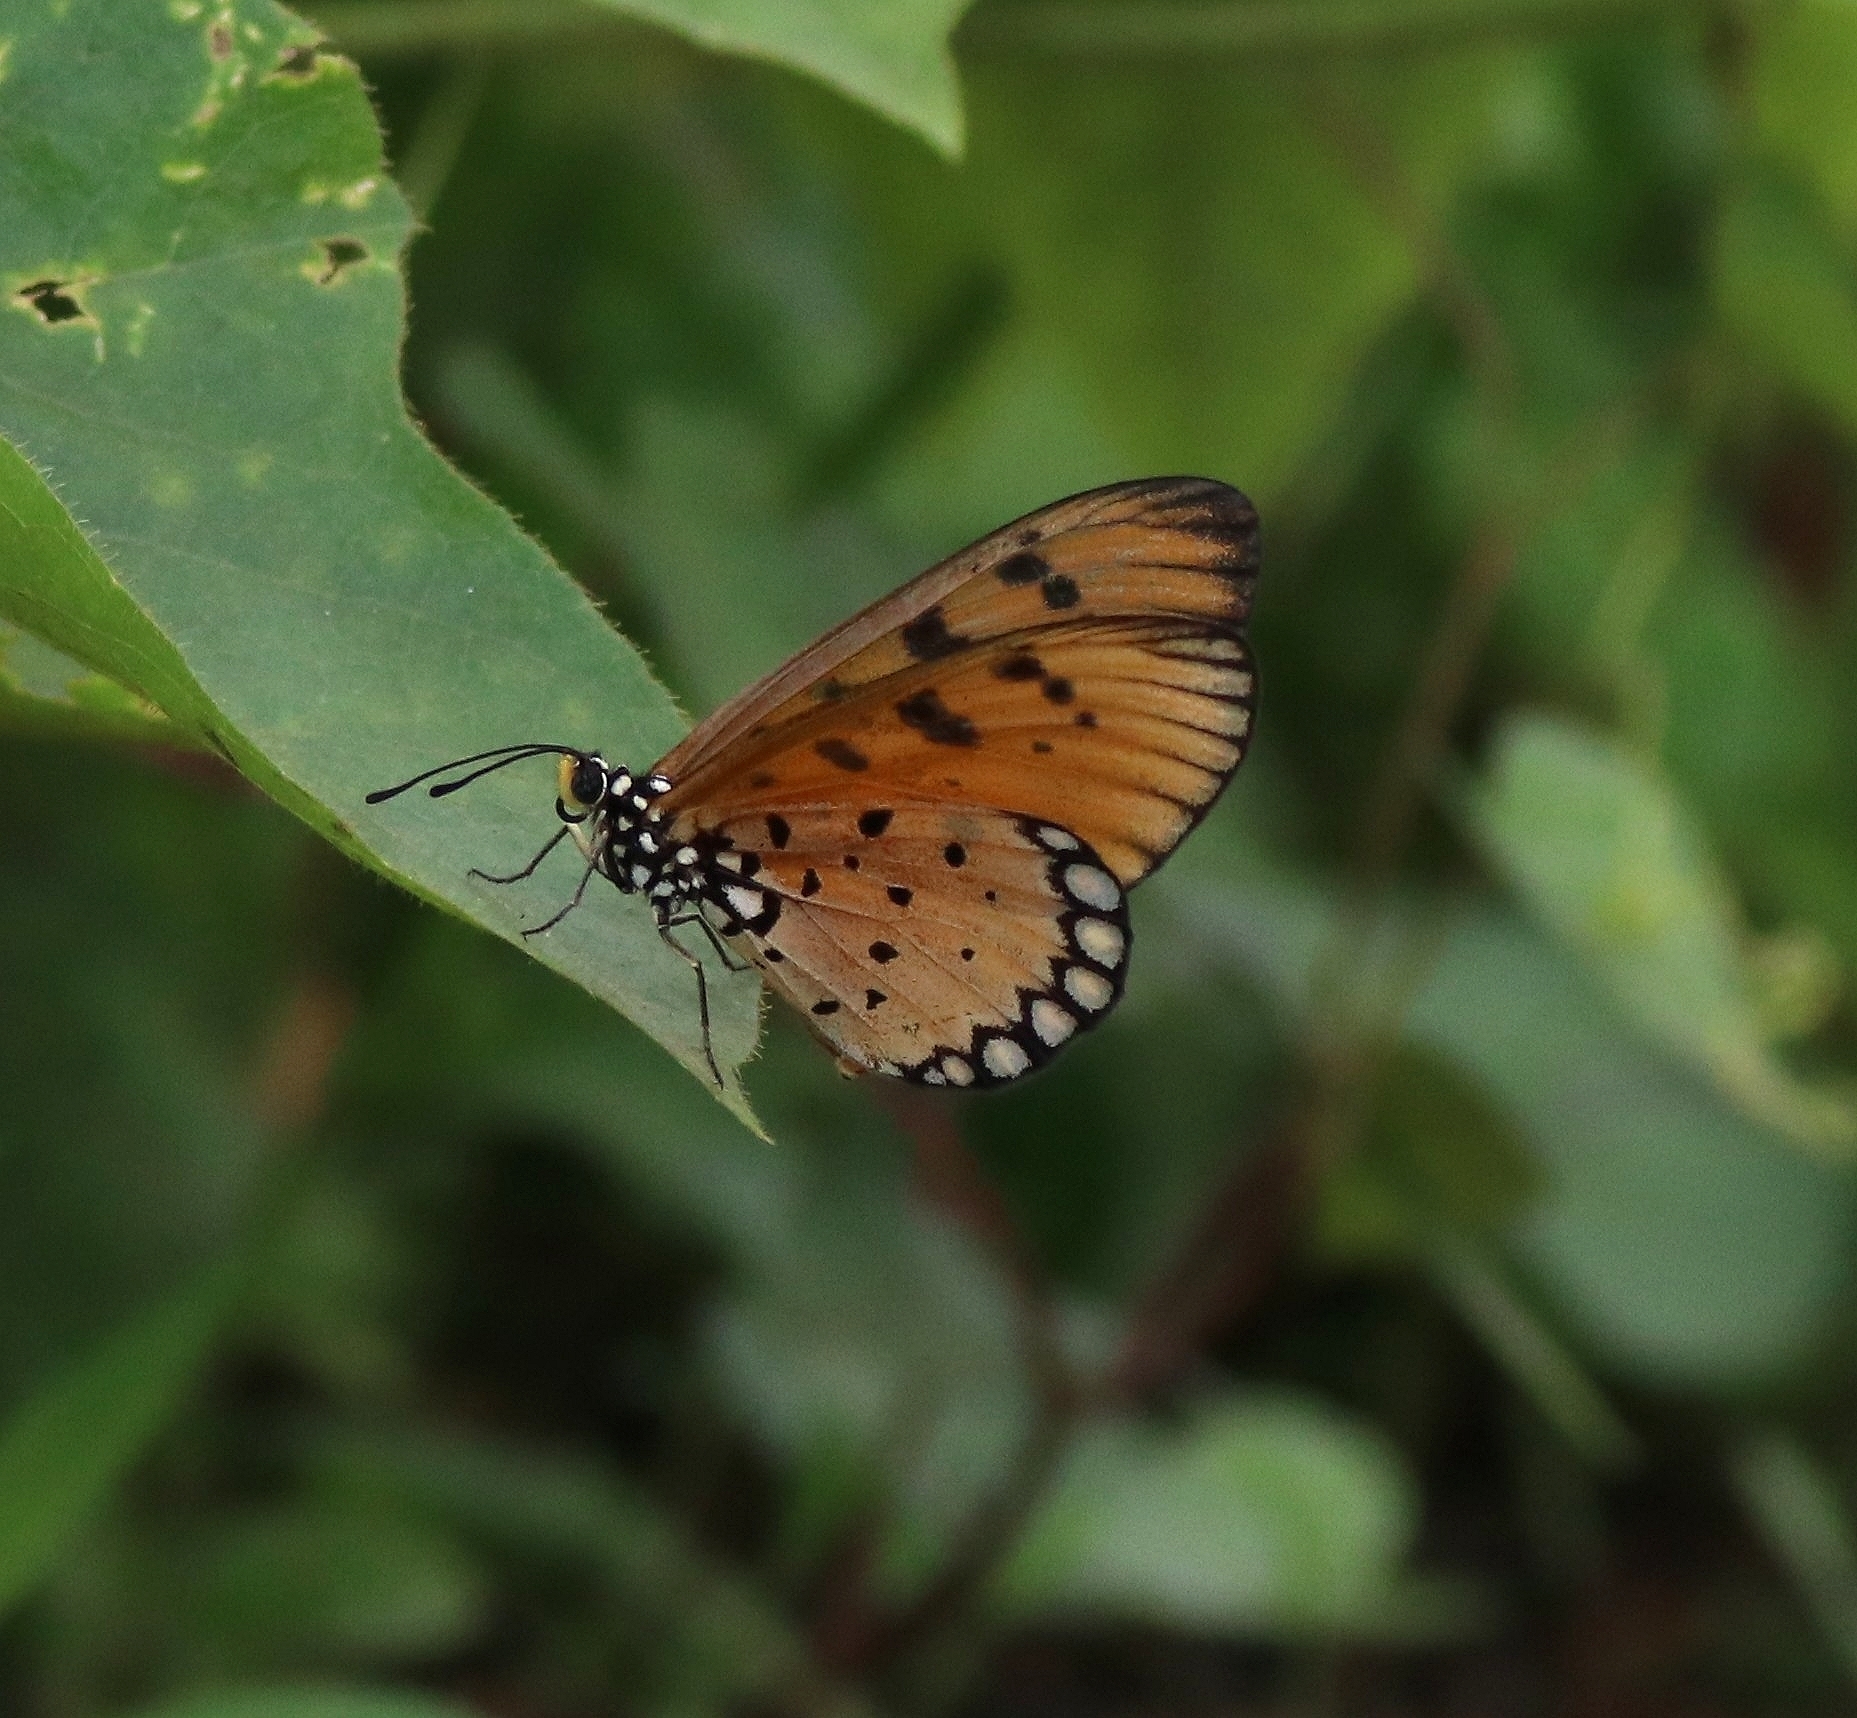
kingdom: Animalia
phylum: Arthropoda
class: Insecta
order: Lepidoptera
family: Nymphalidae
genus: Acraea
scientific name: Acraea terpsicore
